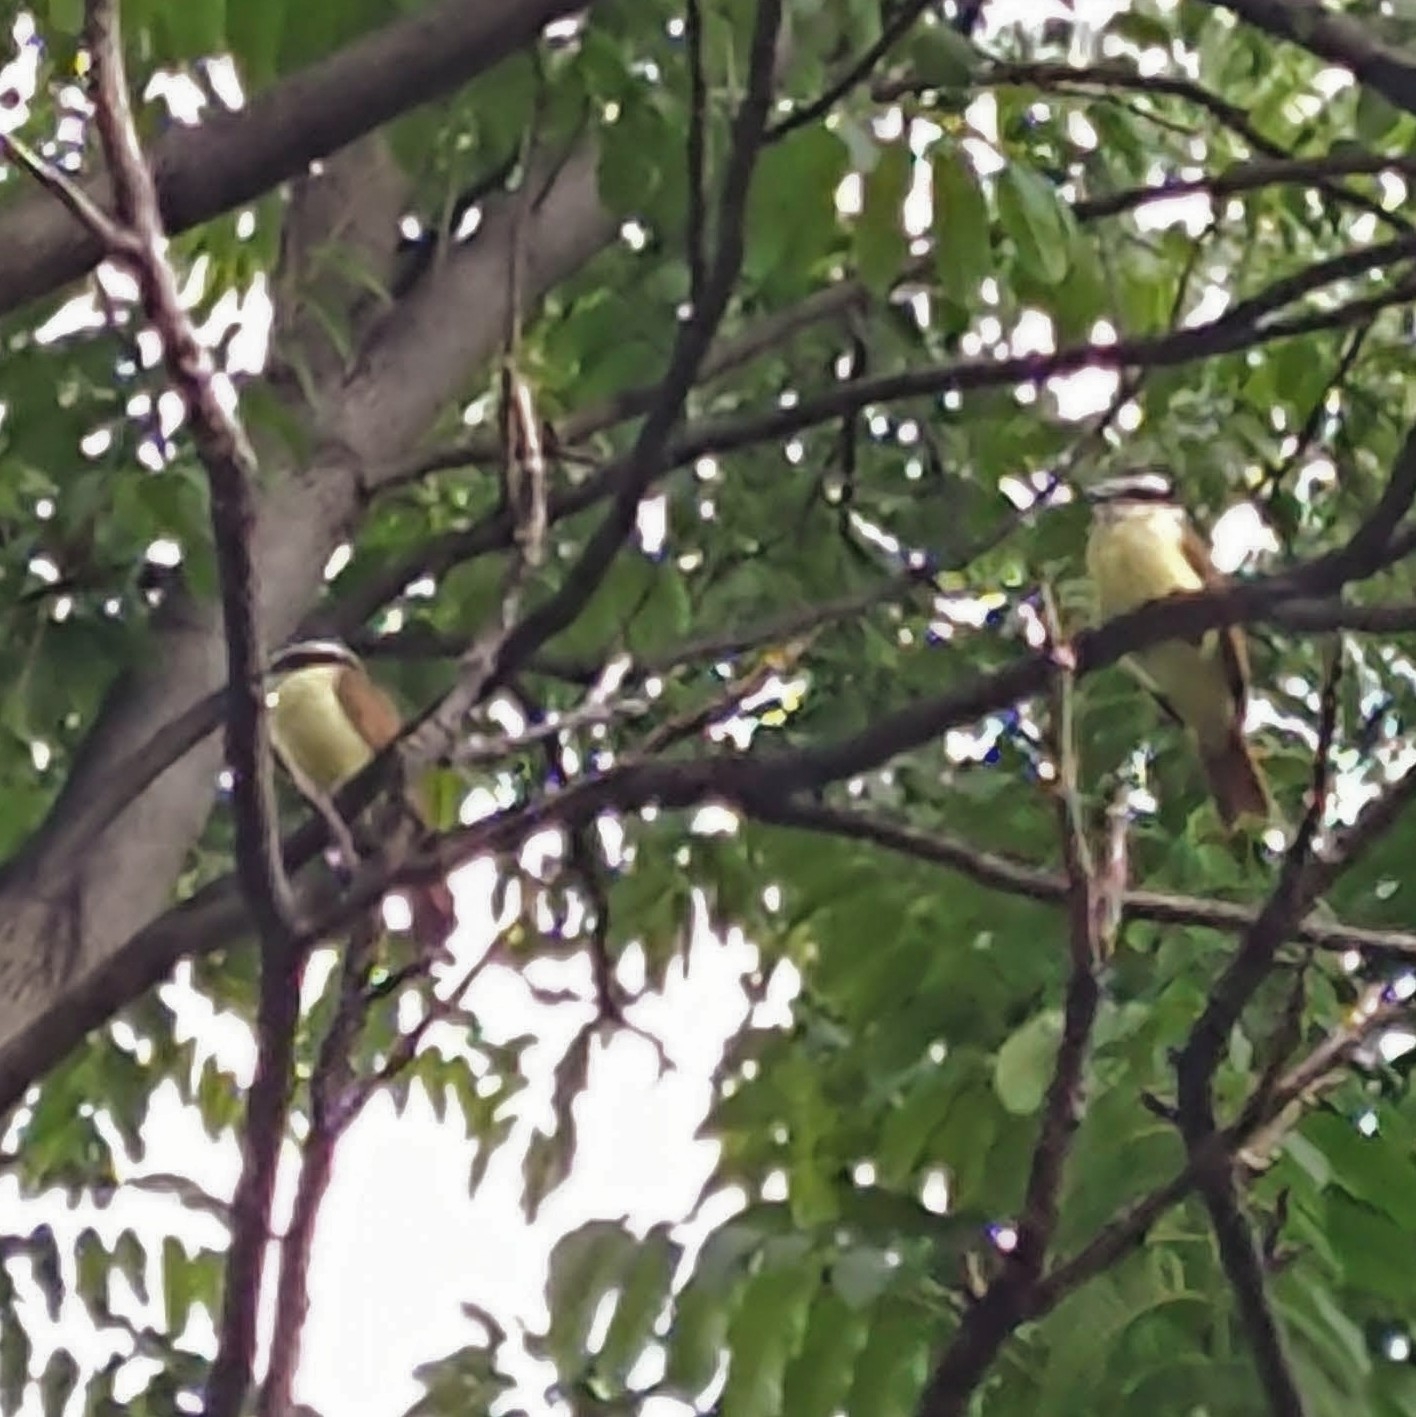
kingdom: Animalia
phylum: Chordata
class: Aves
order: Passeriformes
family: Tyrannidae
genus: Pitangus
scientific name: Pitangus sulphuratus
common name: Great kiskadee
